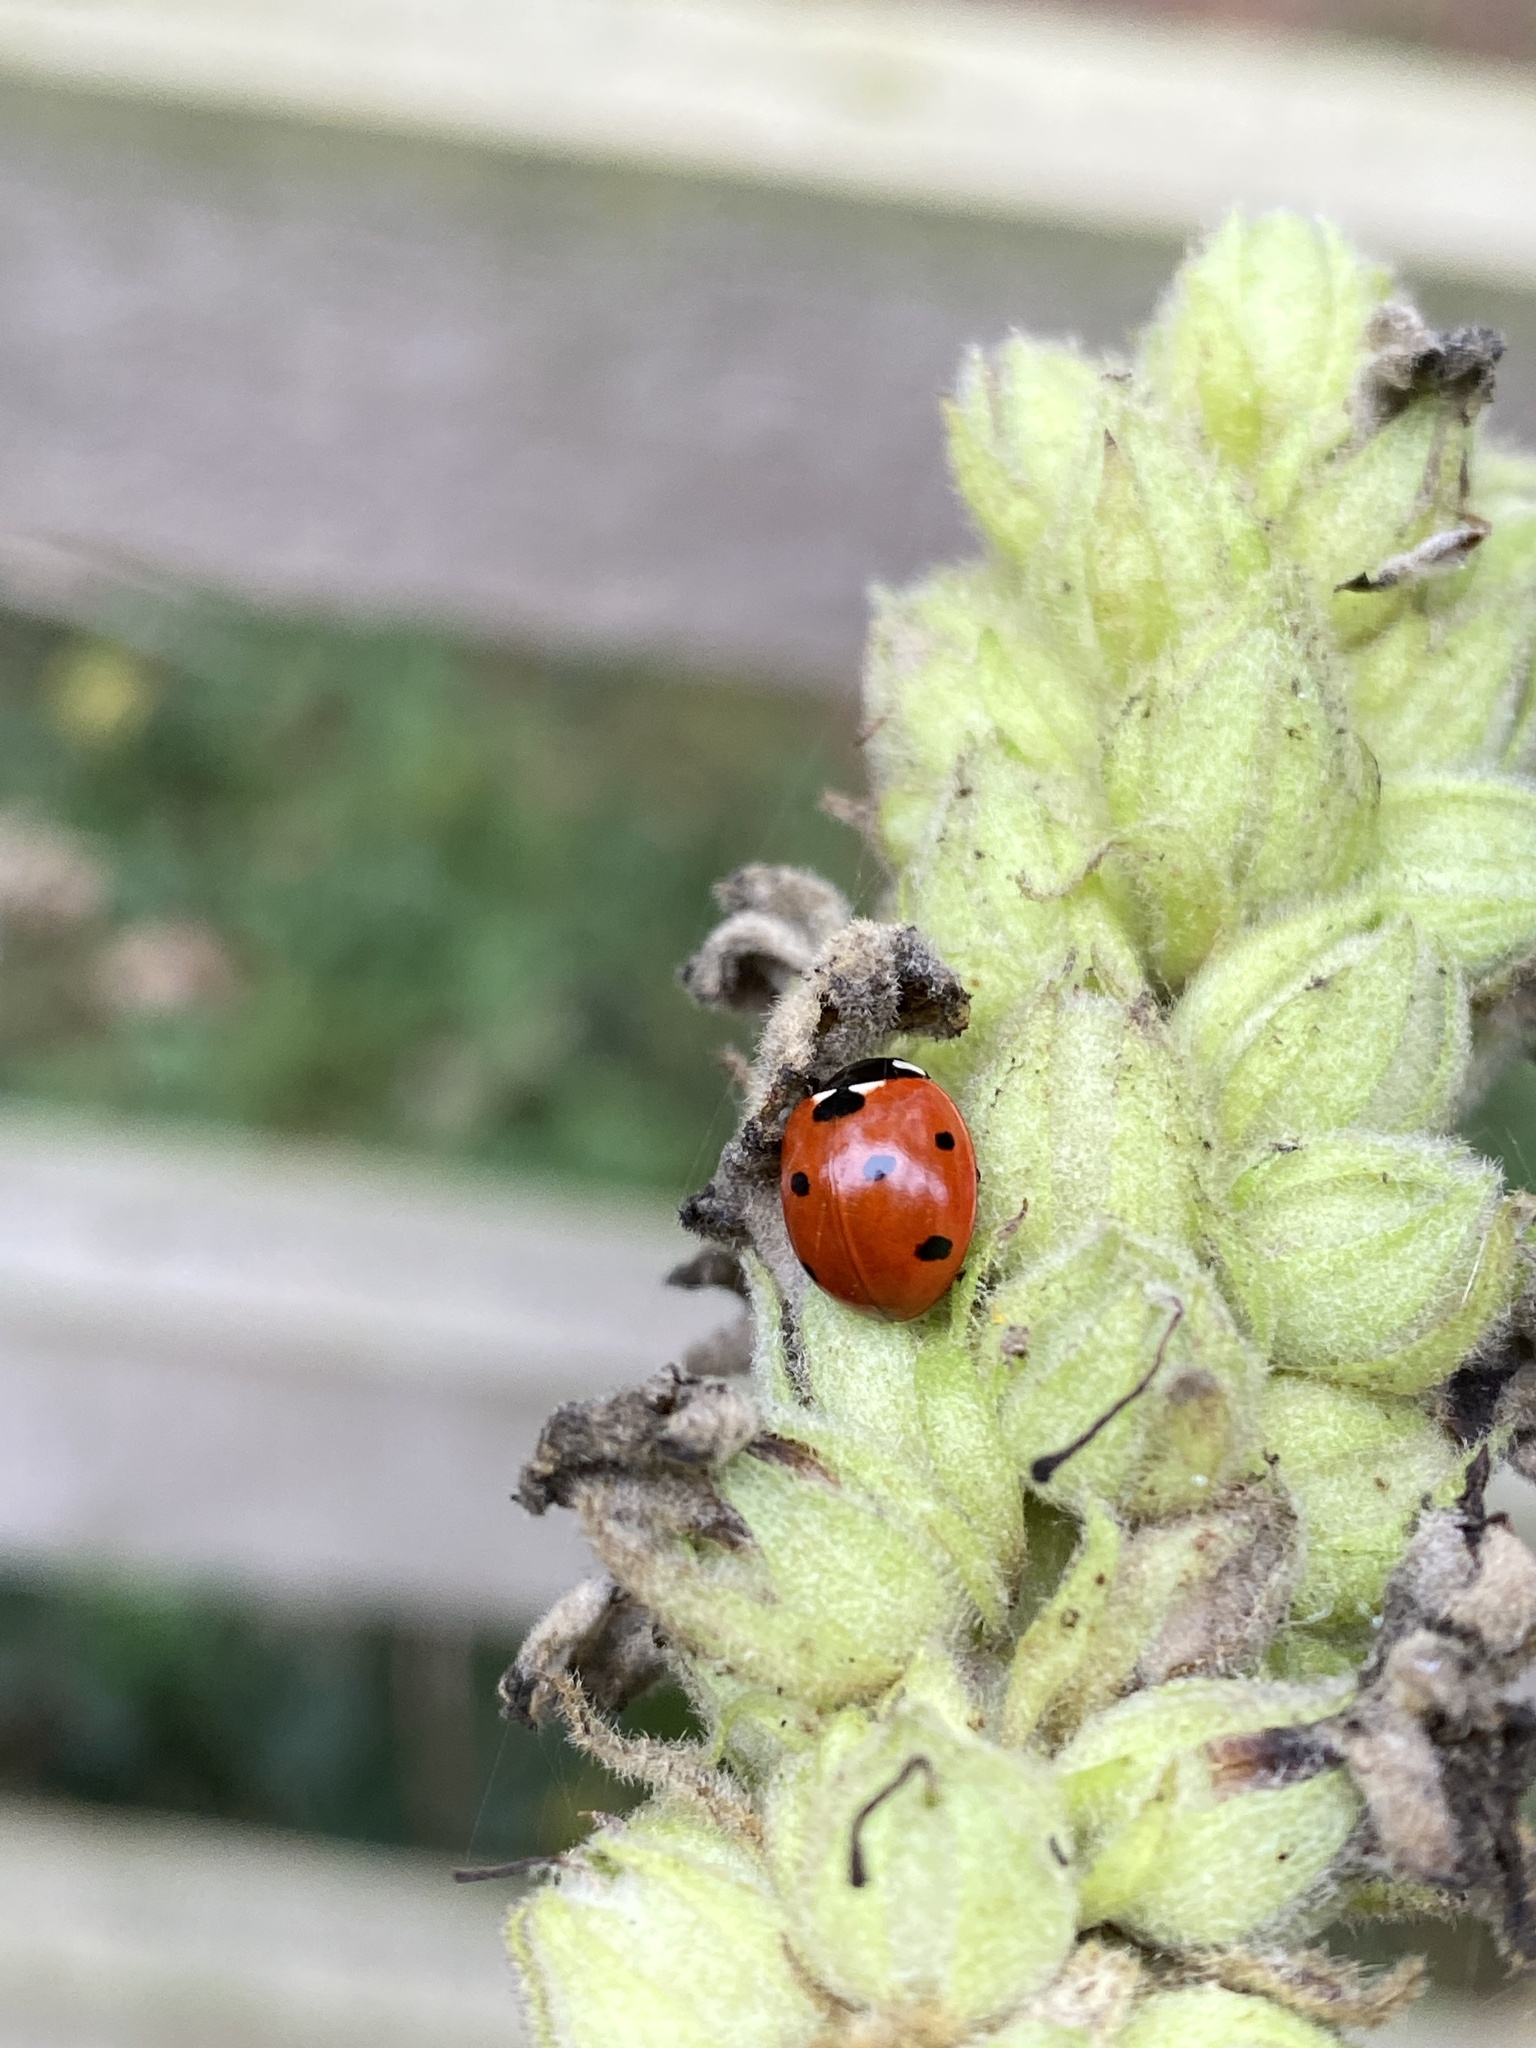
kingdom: Animalia
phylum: Arthropoda
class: Insecta
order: Coleoptera
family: Coccinellidae
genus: Coccinella
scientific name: Coccinella septempunctata
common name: Sevenspotted lady beetle
